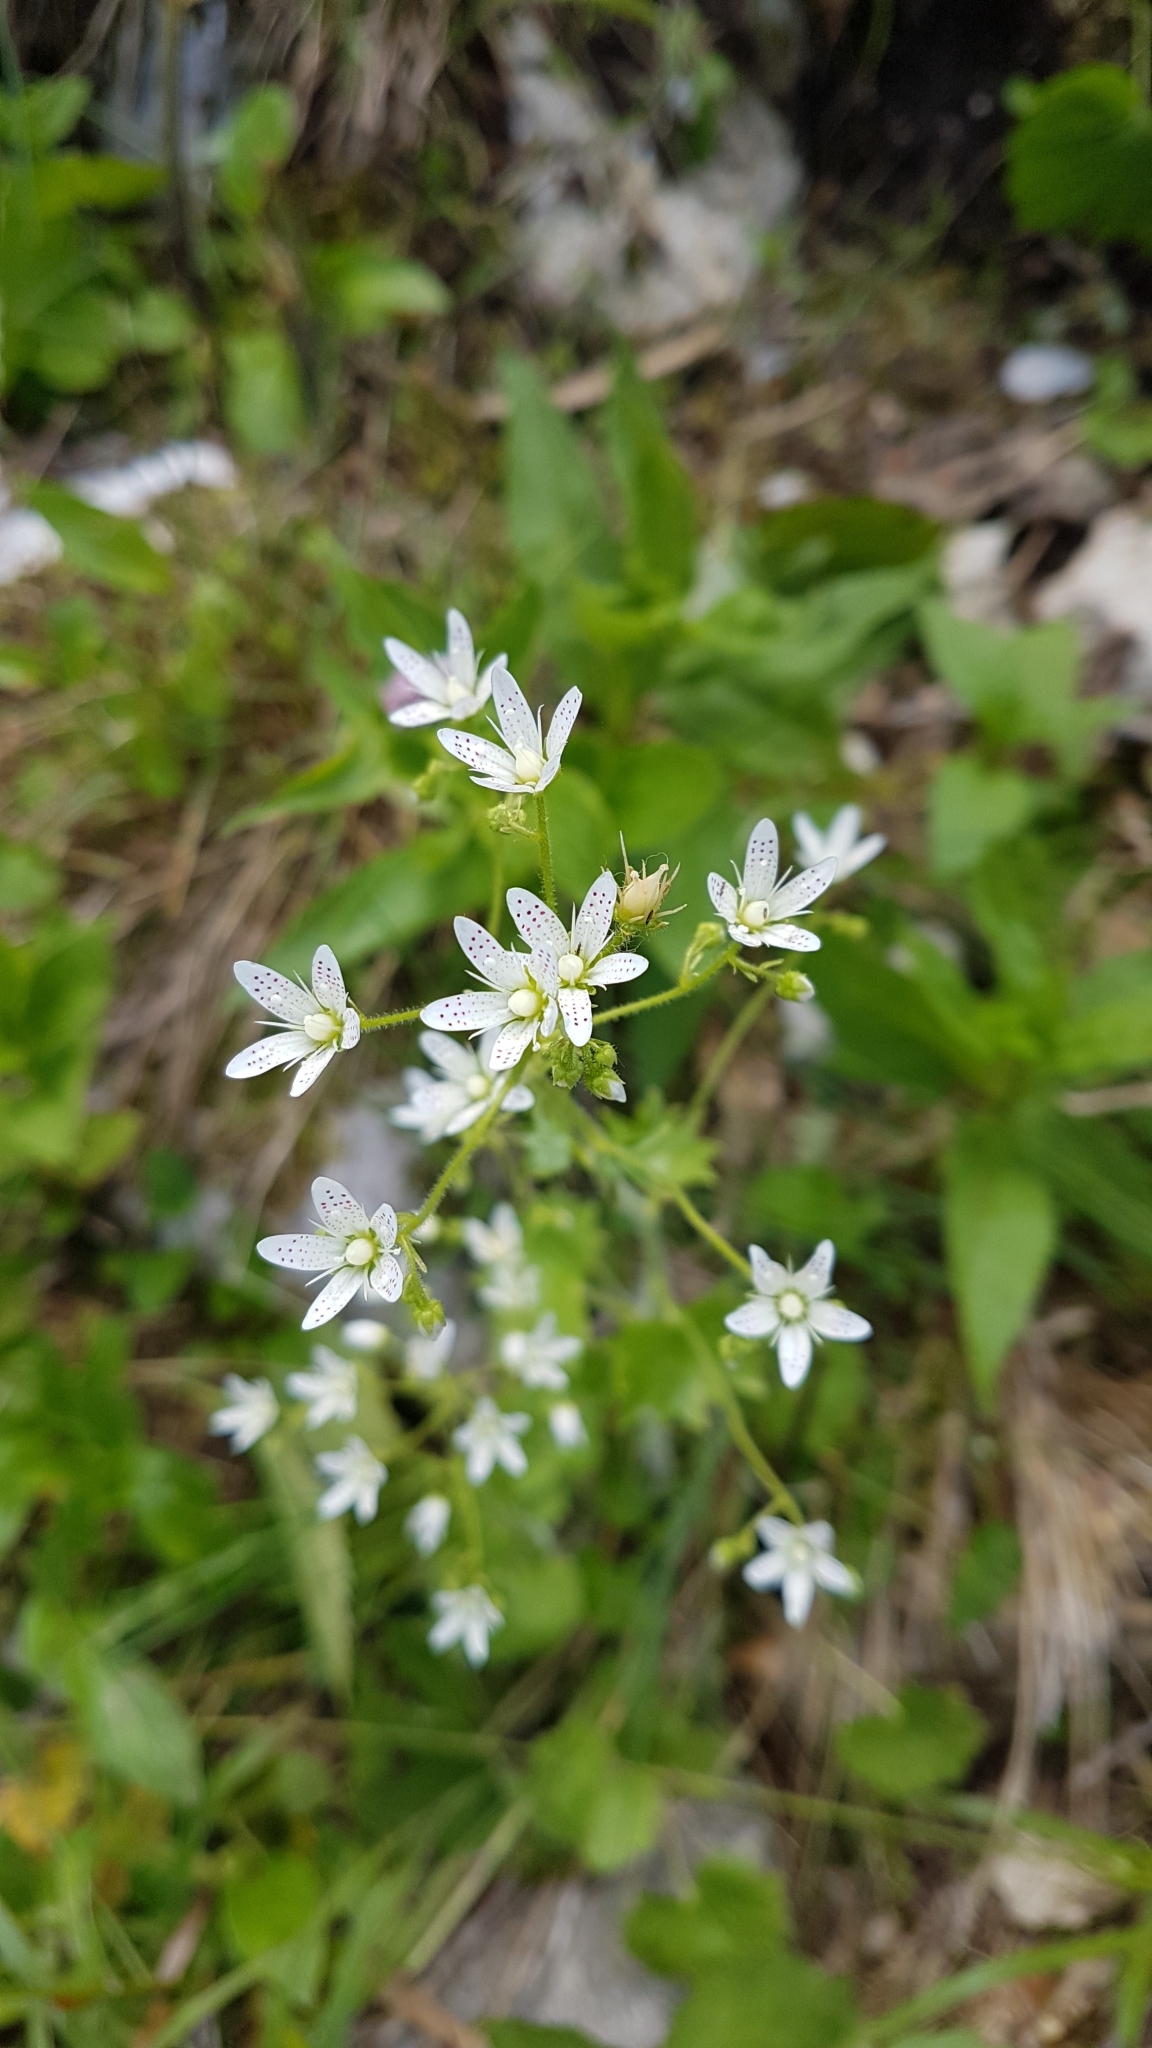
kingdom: Plantae
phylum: Tracheophyta
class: Magnoliopsida
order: Saxifragales
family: Saxifragaceae
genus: Saxifraga
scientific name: Saxifraga rotundifolia
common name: Round-leaved saxifrage
